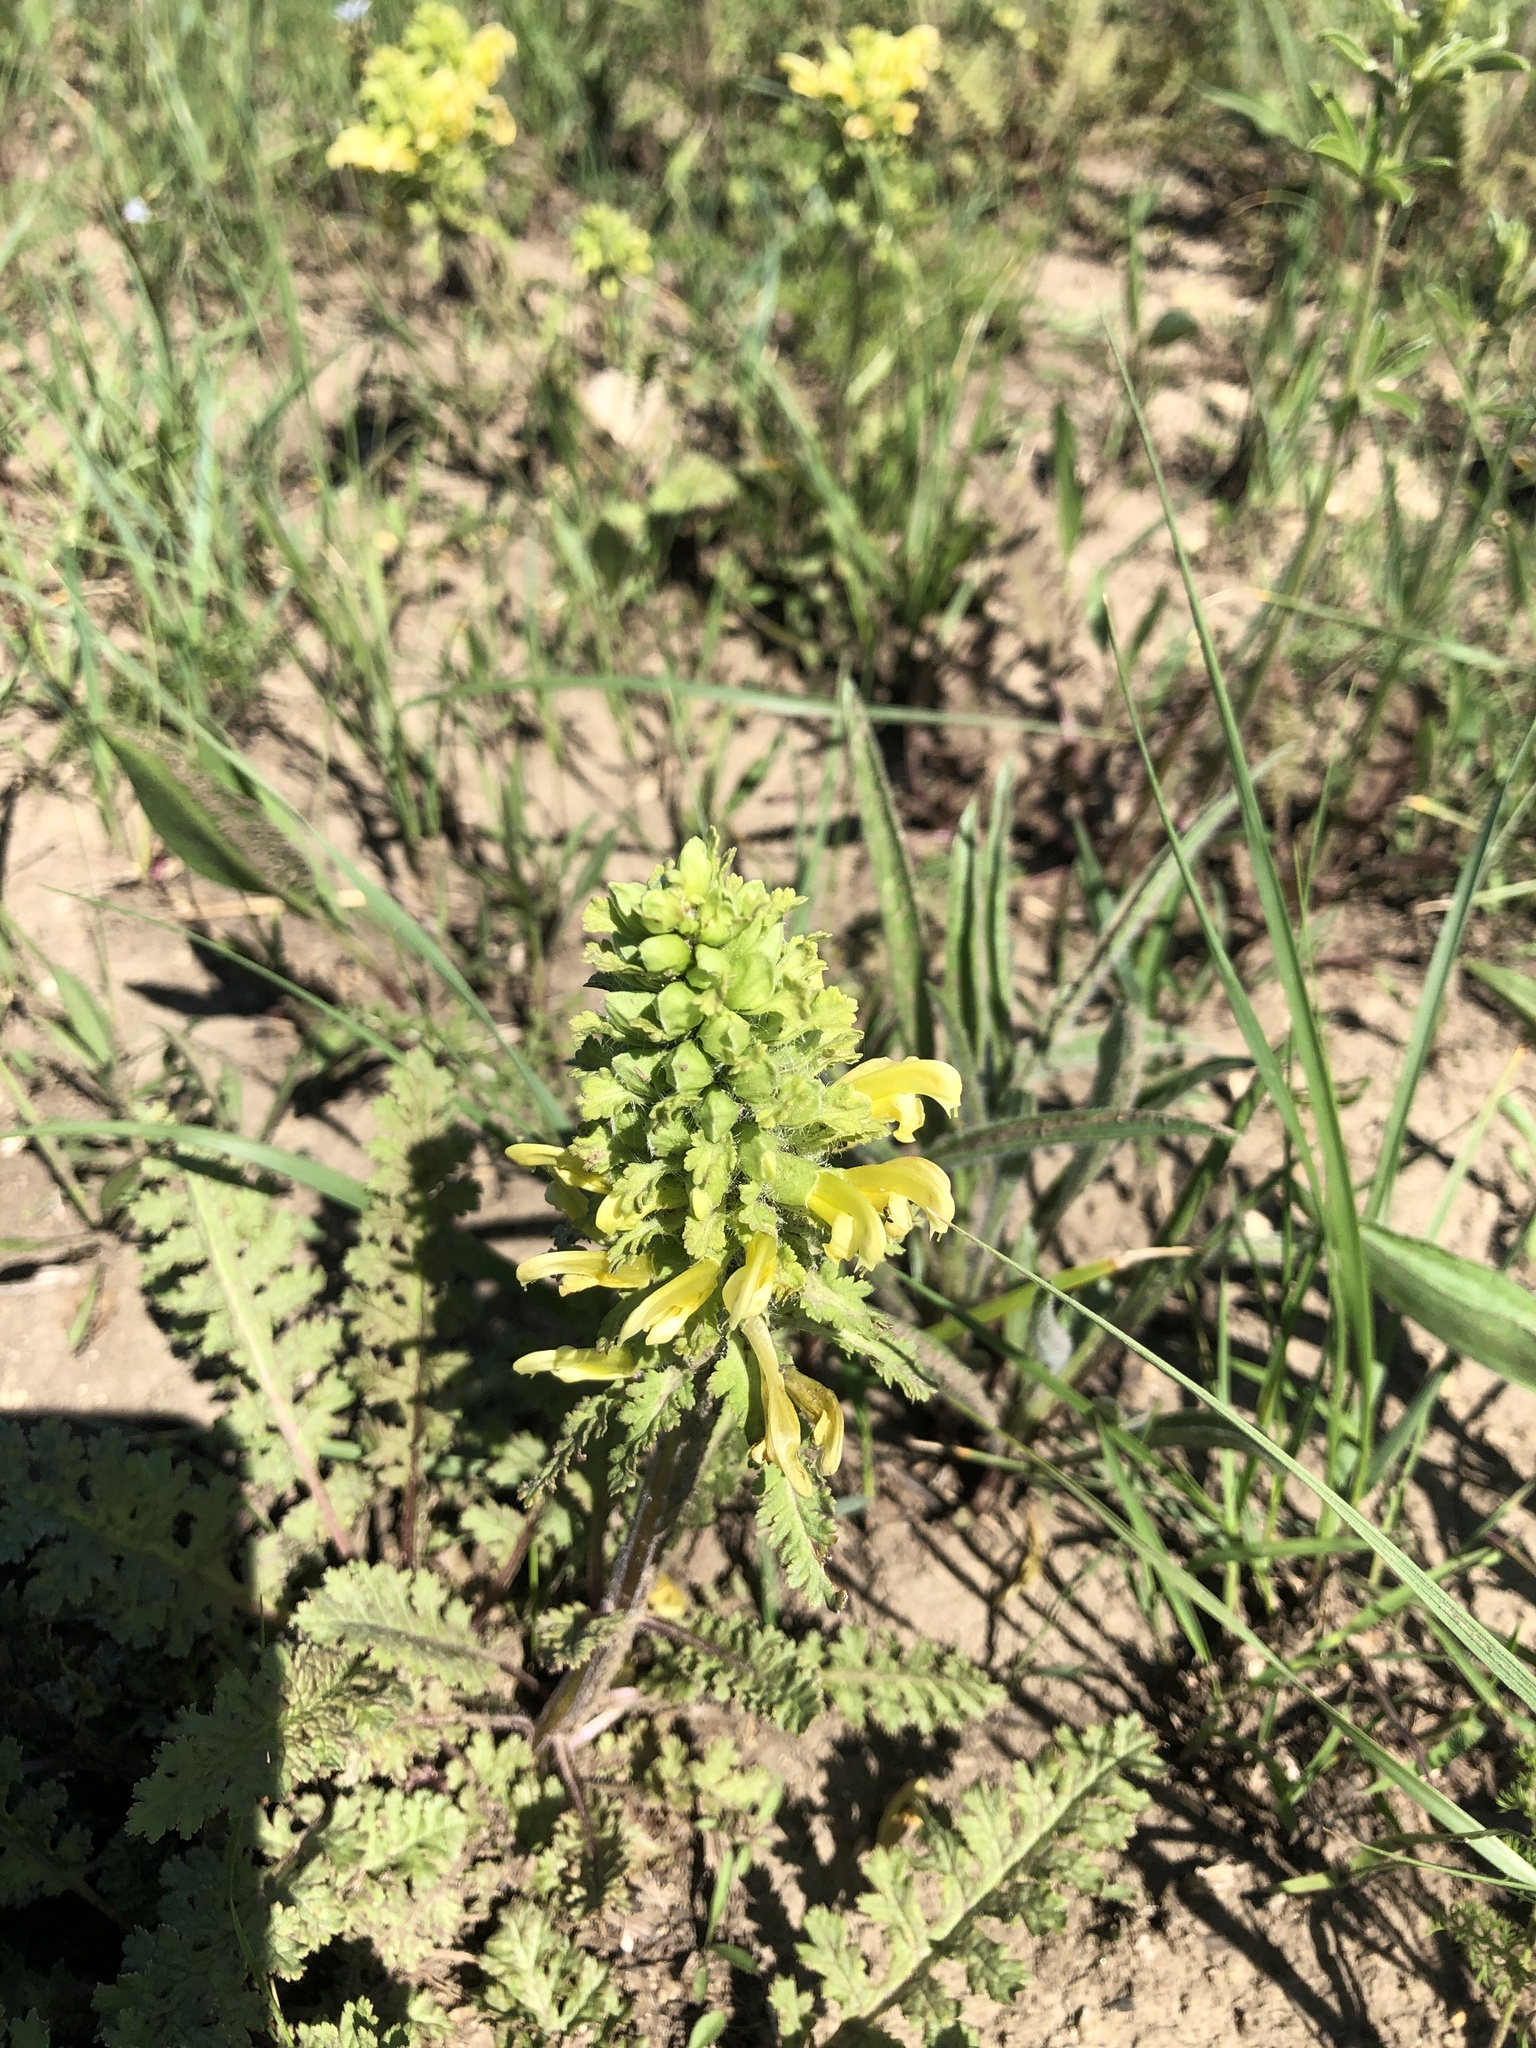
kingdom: Plantae
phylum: Tracheophyta
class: Magnoliopsida
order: Lamiales
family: Orobanchaceae
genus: Pedicularis
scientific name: Pedicularis canadensis
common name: Early lousewort
